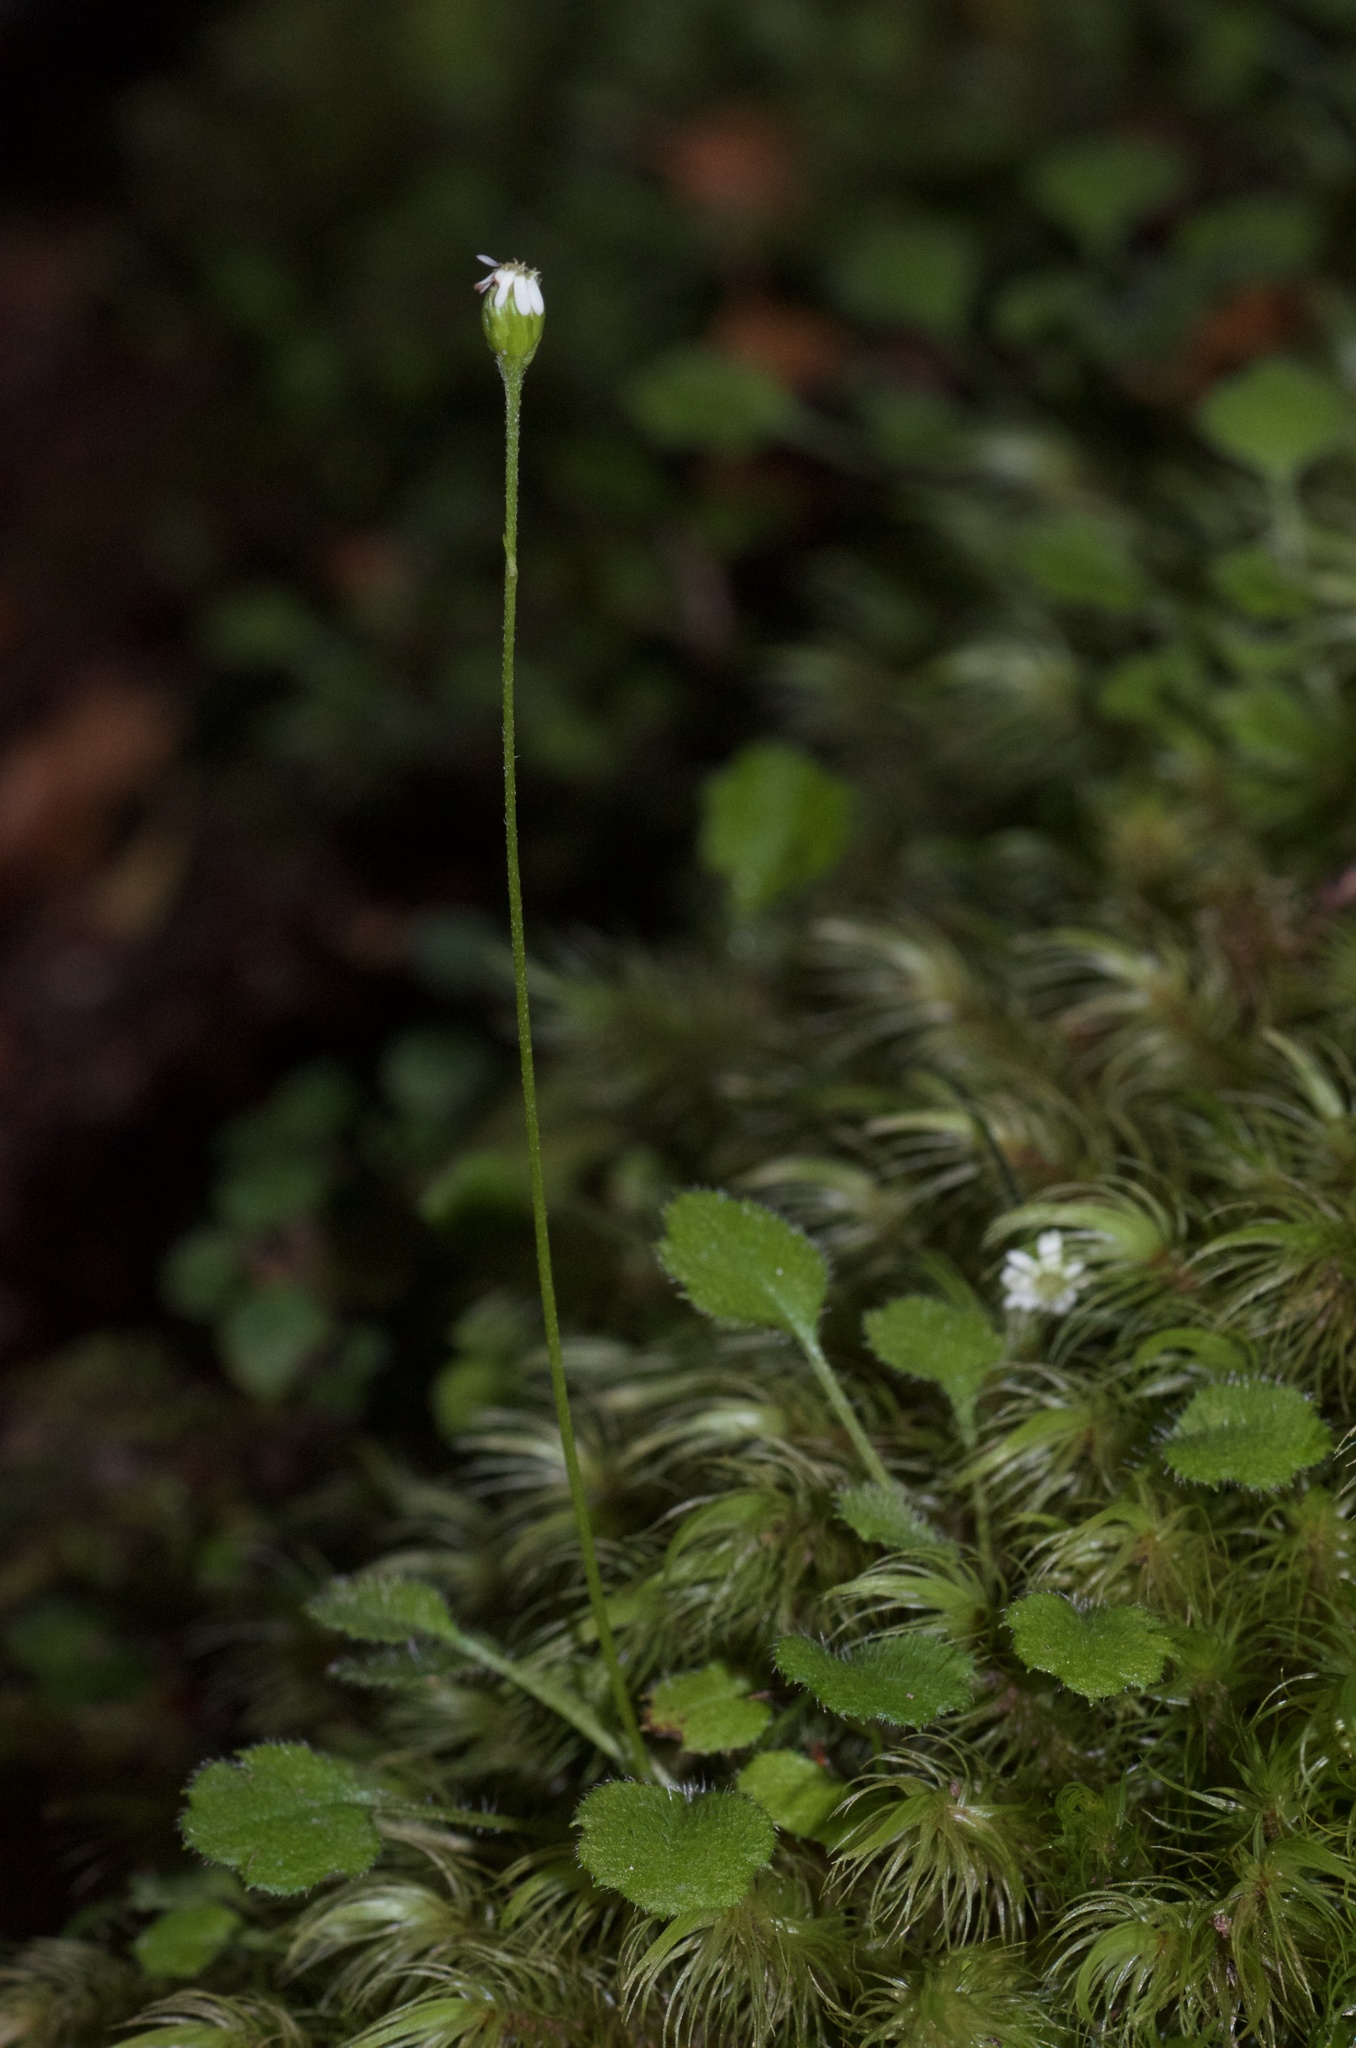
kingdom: Plantae
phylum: Tracheophyta
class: Magnoliopsida
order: Asterales
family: Asteraceae
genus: Lagenophora
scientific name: Lagenophora strangulata
